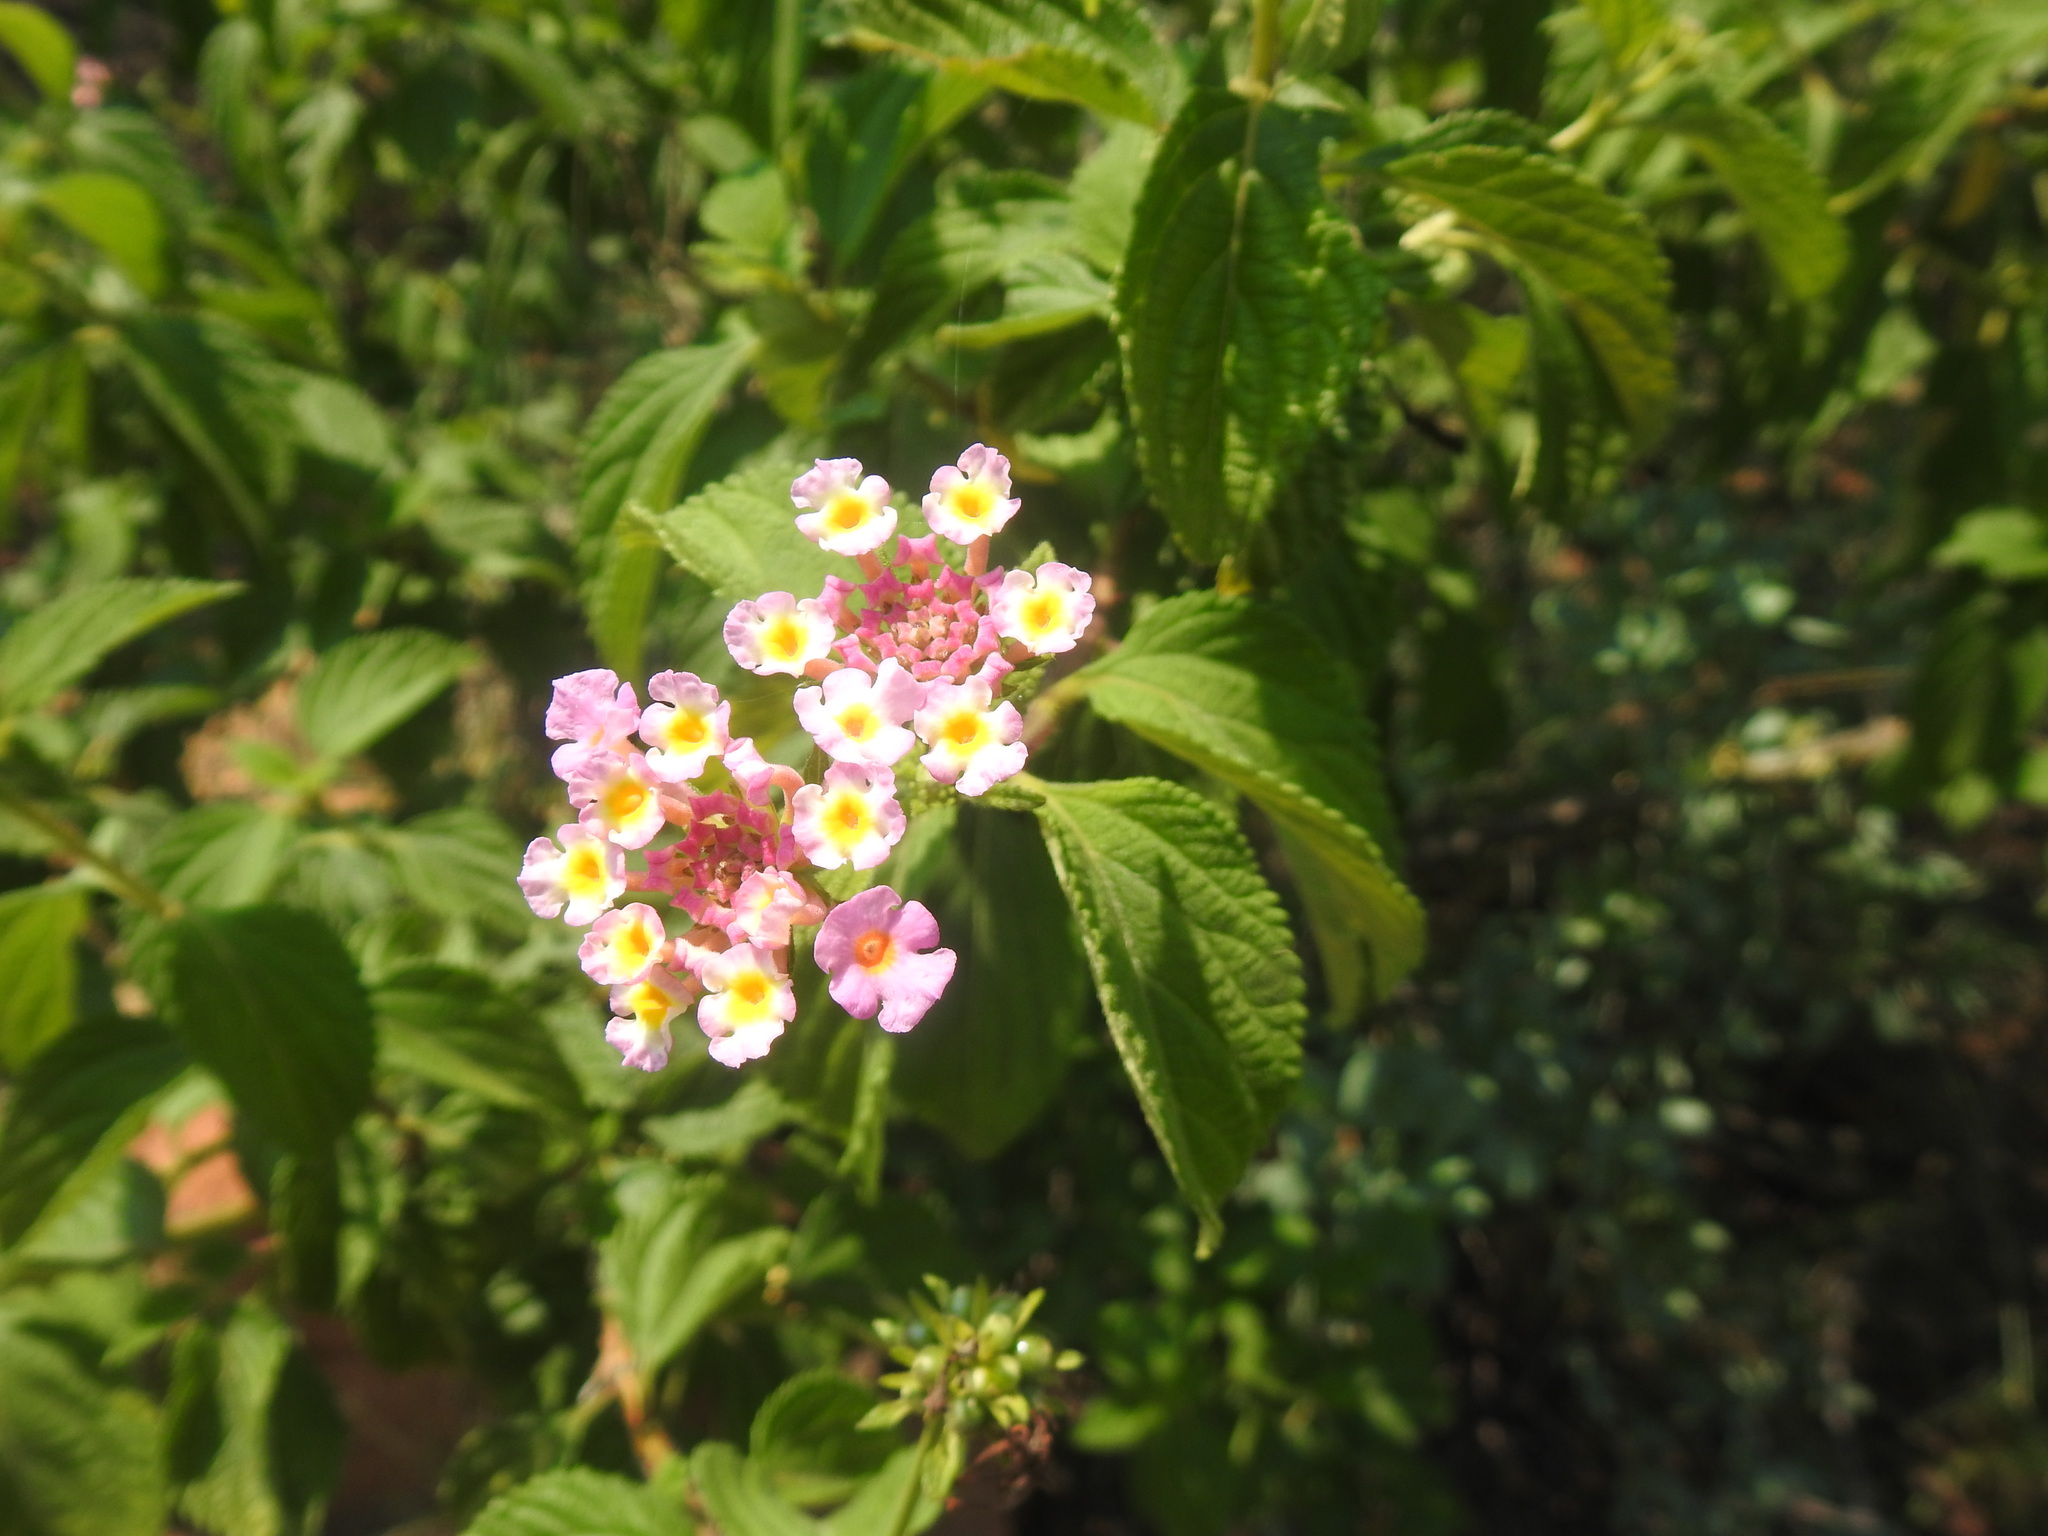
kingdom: Plantae
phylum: Tracheophyta
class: Magnoliopsida
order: Lamiales
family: Verbenaceae
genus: Lantana
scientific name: Lantana camara
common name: Lantana
